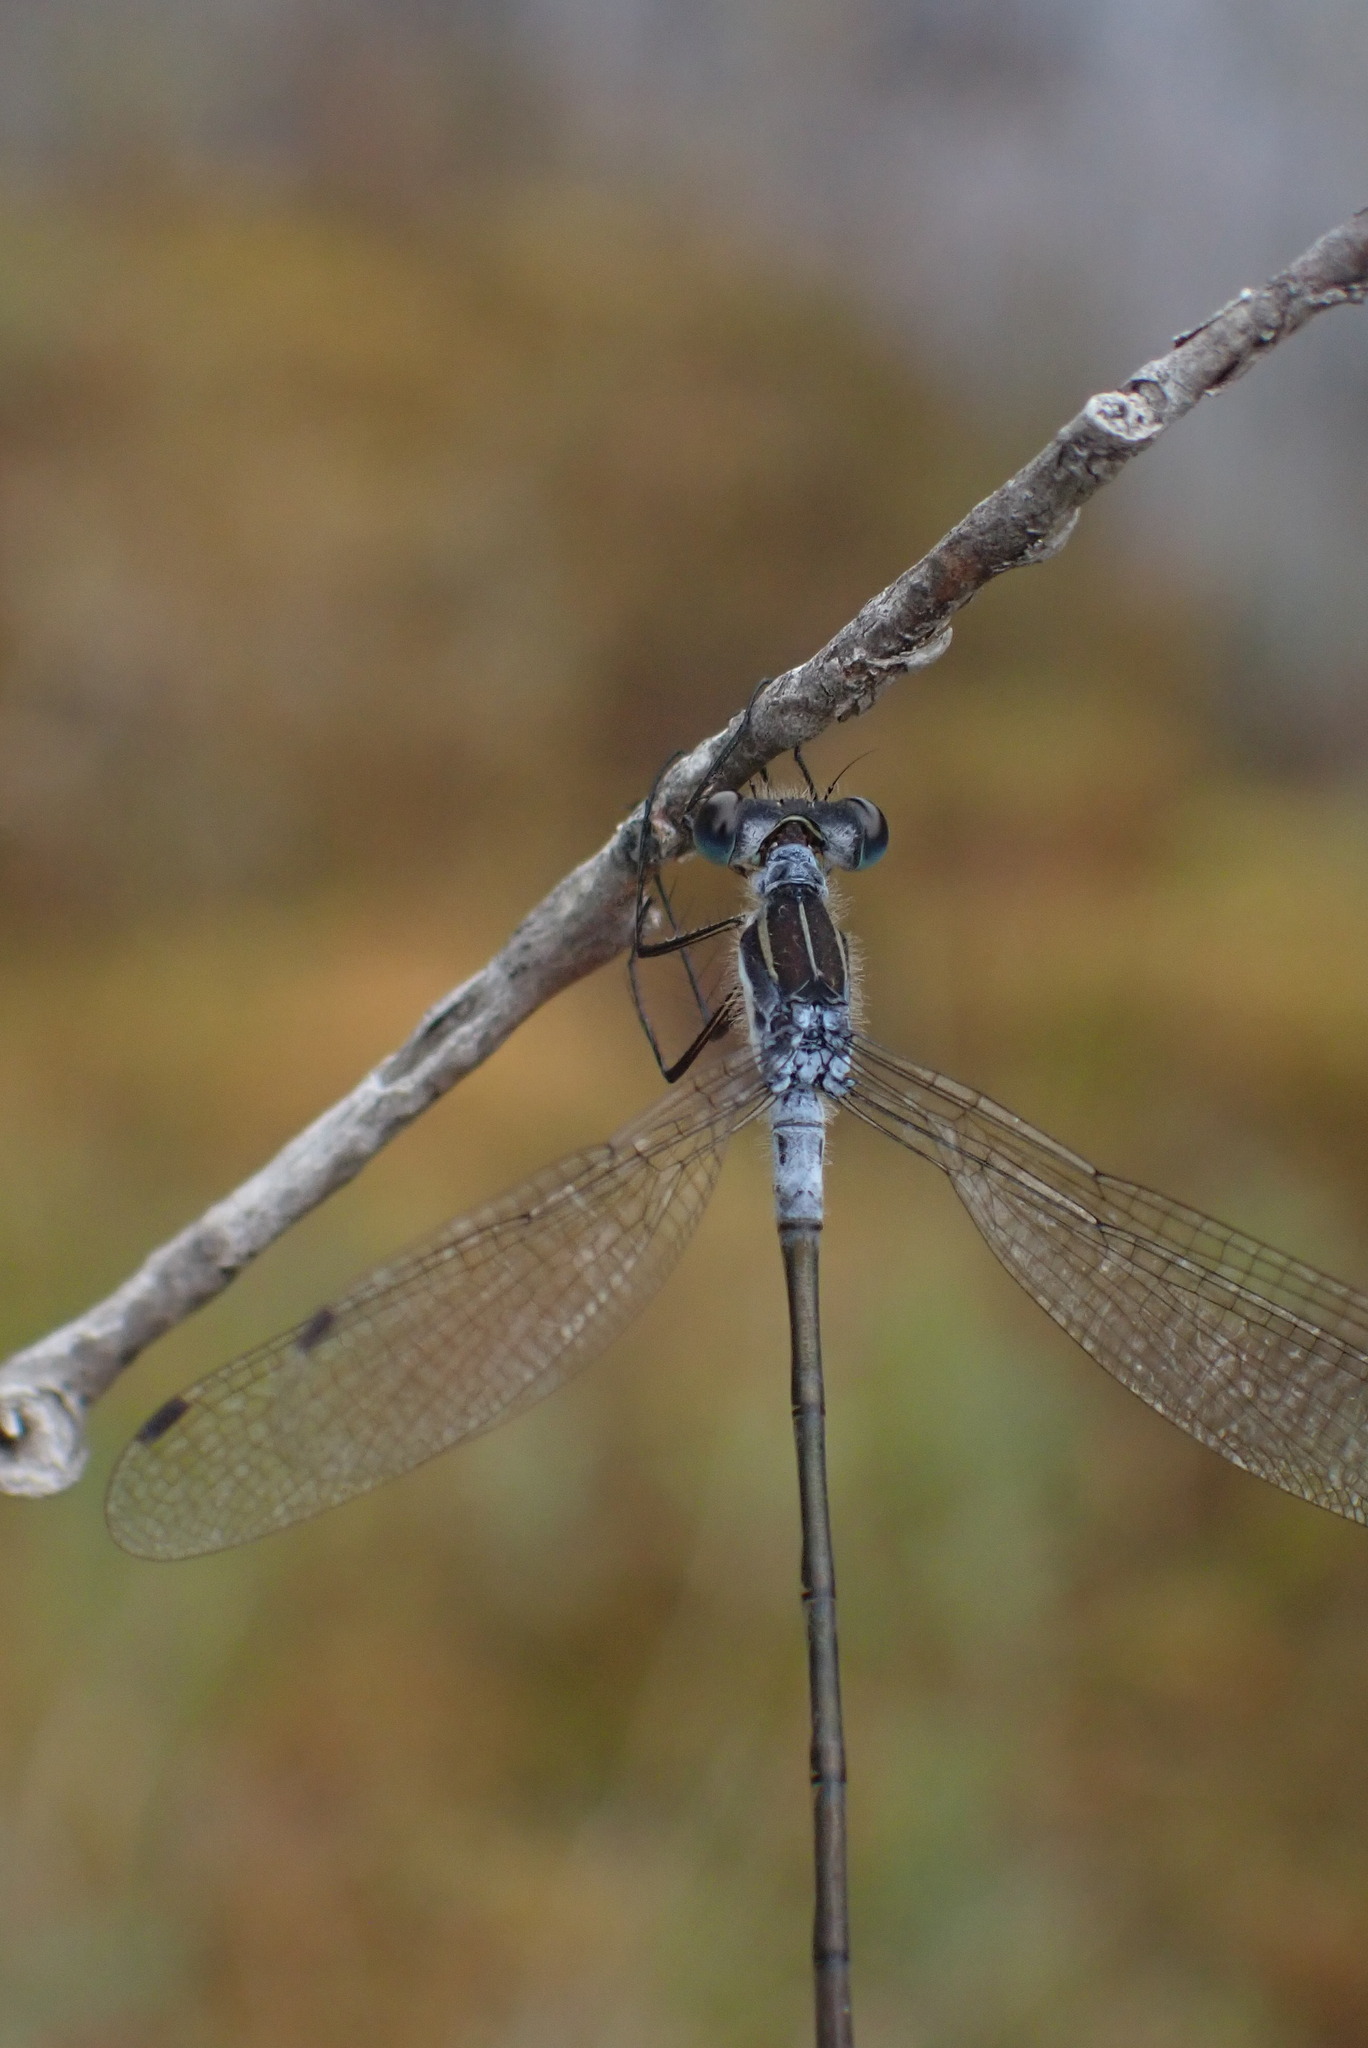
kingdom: Animalia
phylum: Arthropoda
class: Insecta
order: Odonata
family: Lestidae
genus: Lestes
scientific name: Lestes disjunctus
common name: Northern spreadwing
